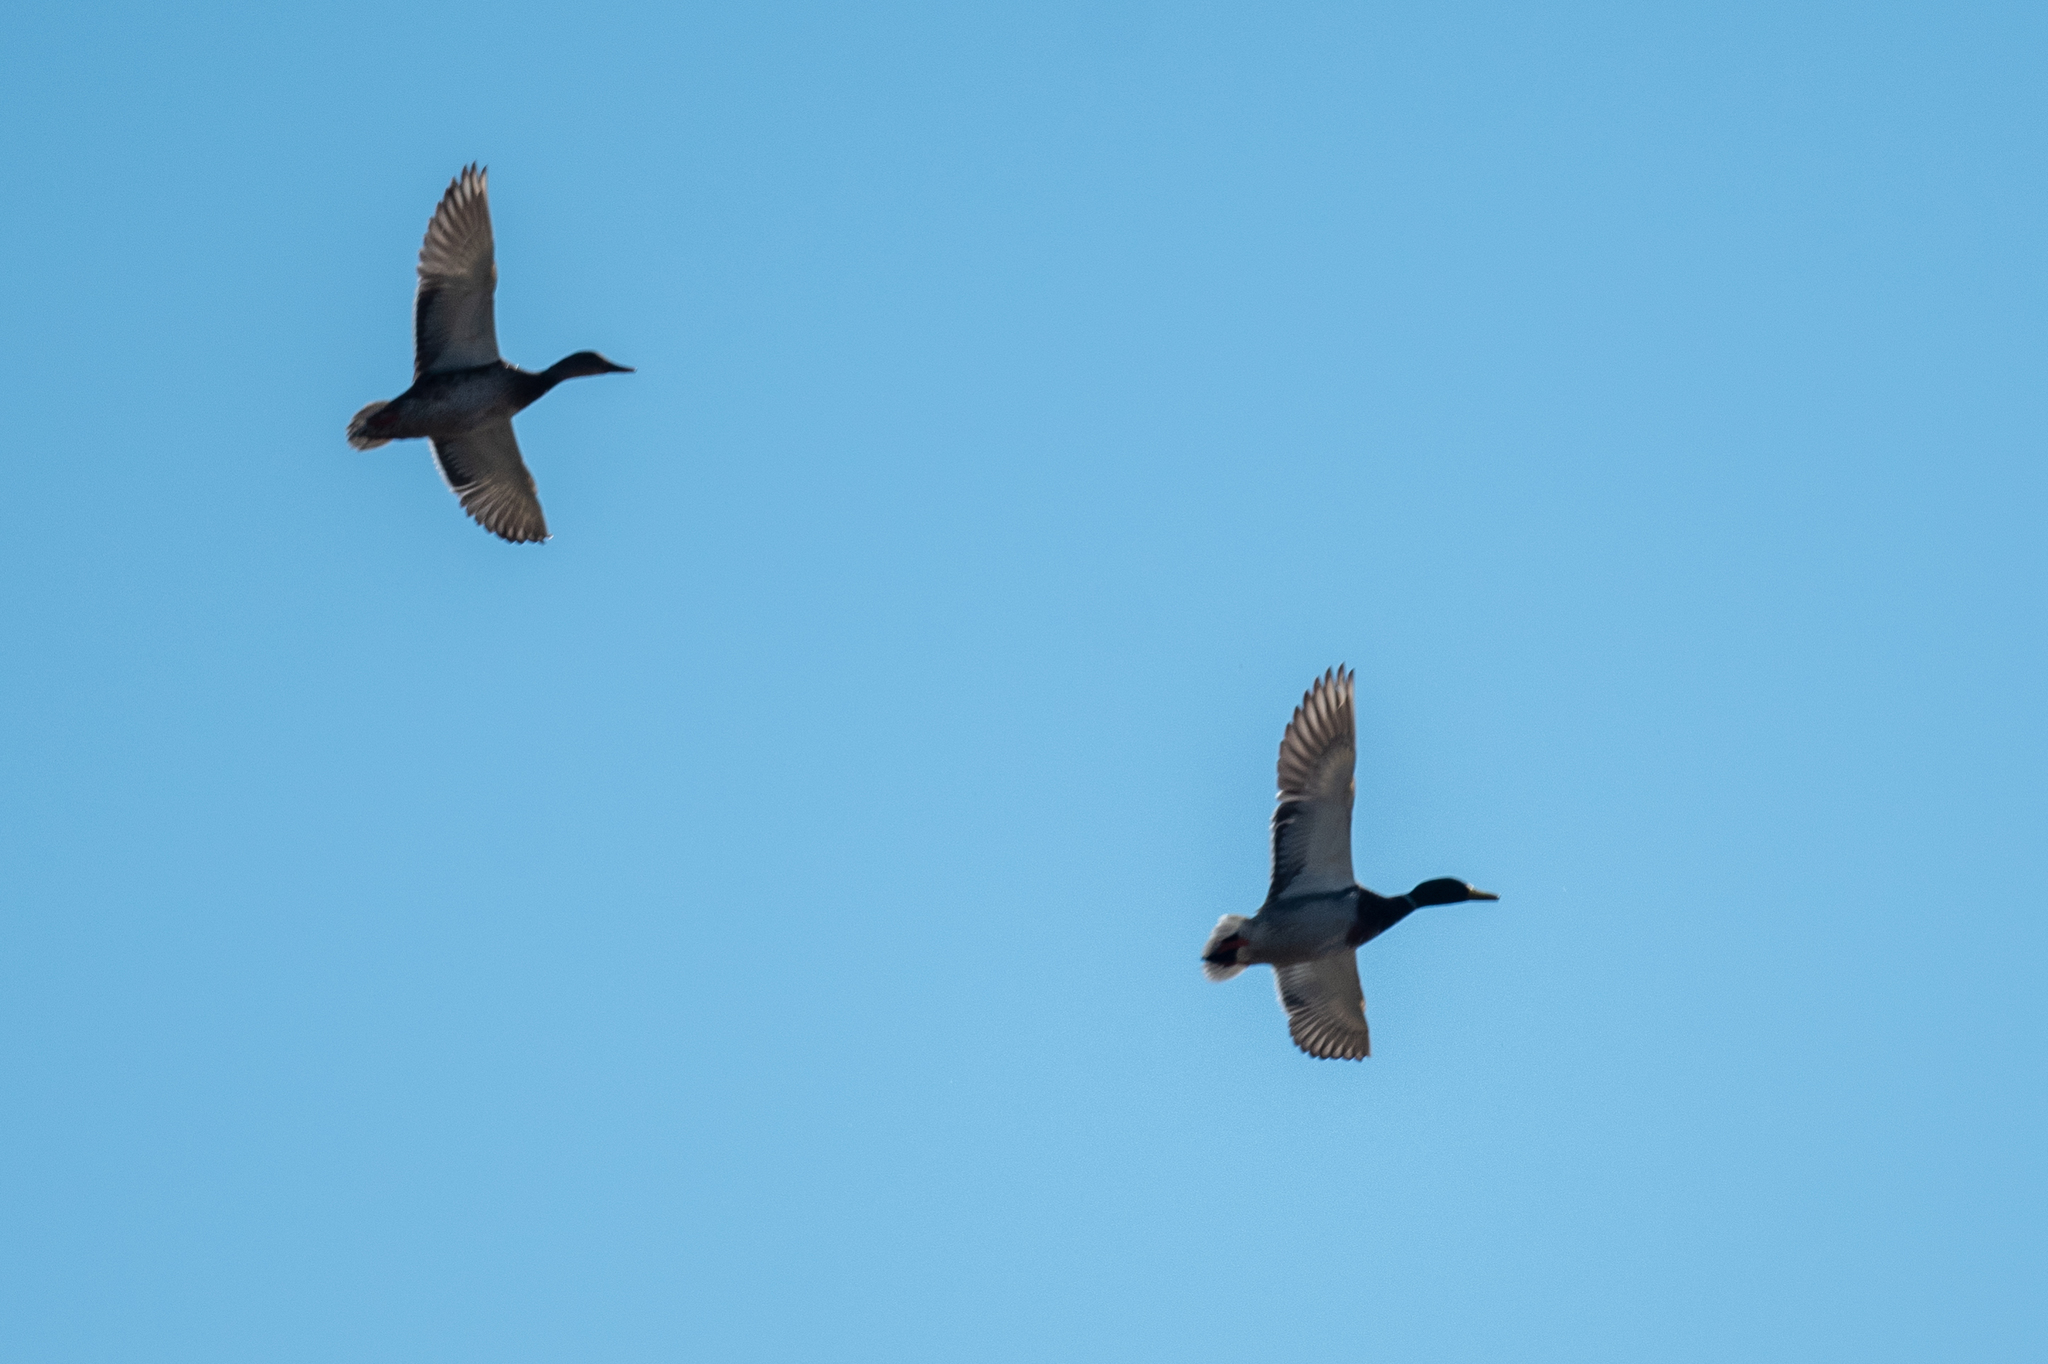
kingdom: Animalia
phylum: Chordata
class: Aves
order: Anseriformes
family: Anatidae
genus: Anas
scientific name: Anas platyrhynchos
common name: Mallard
